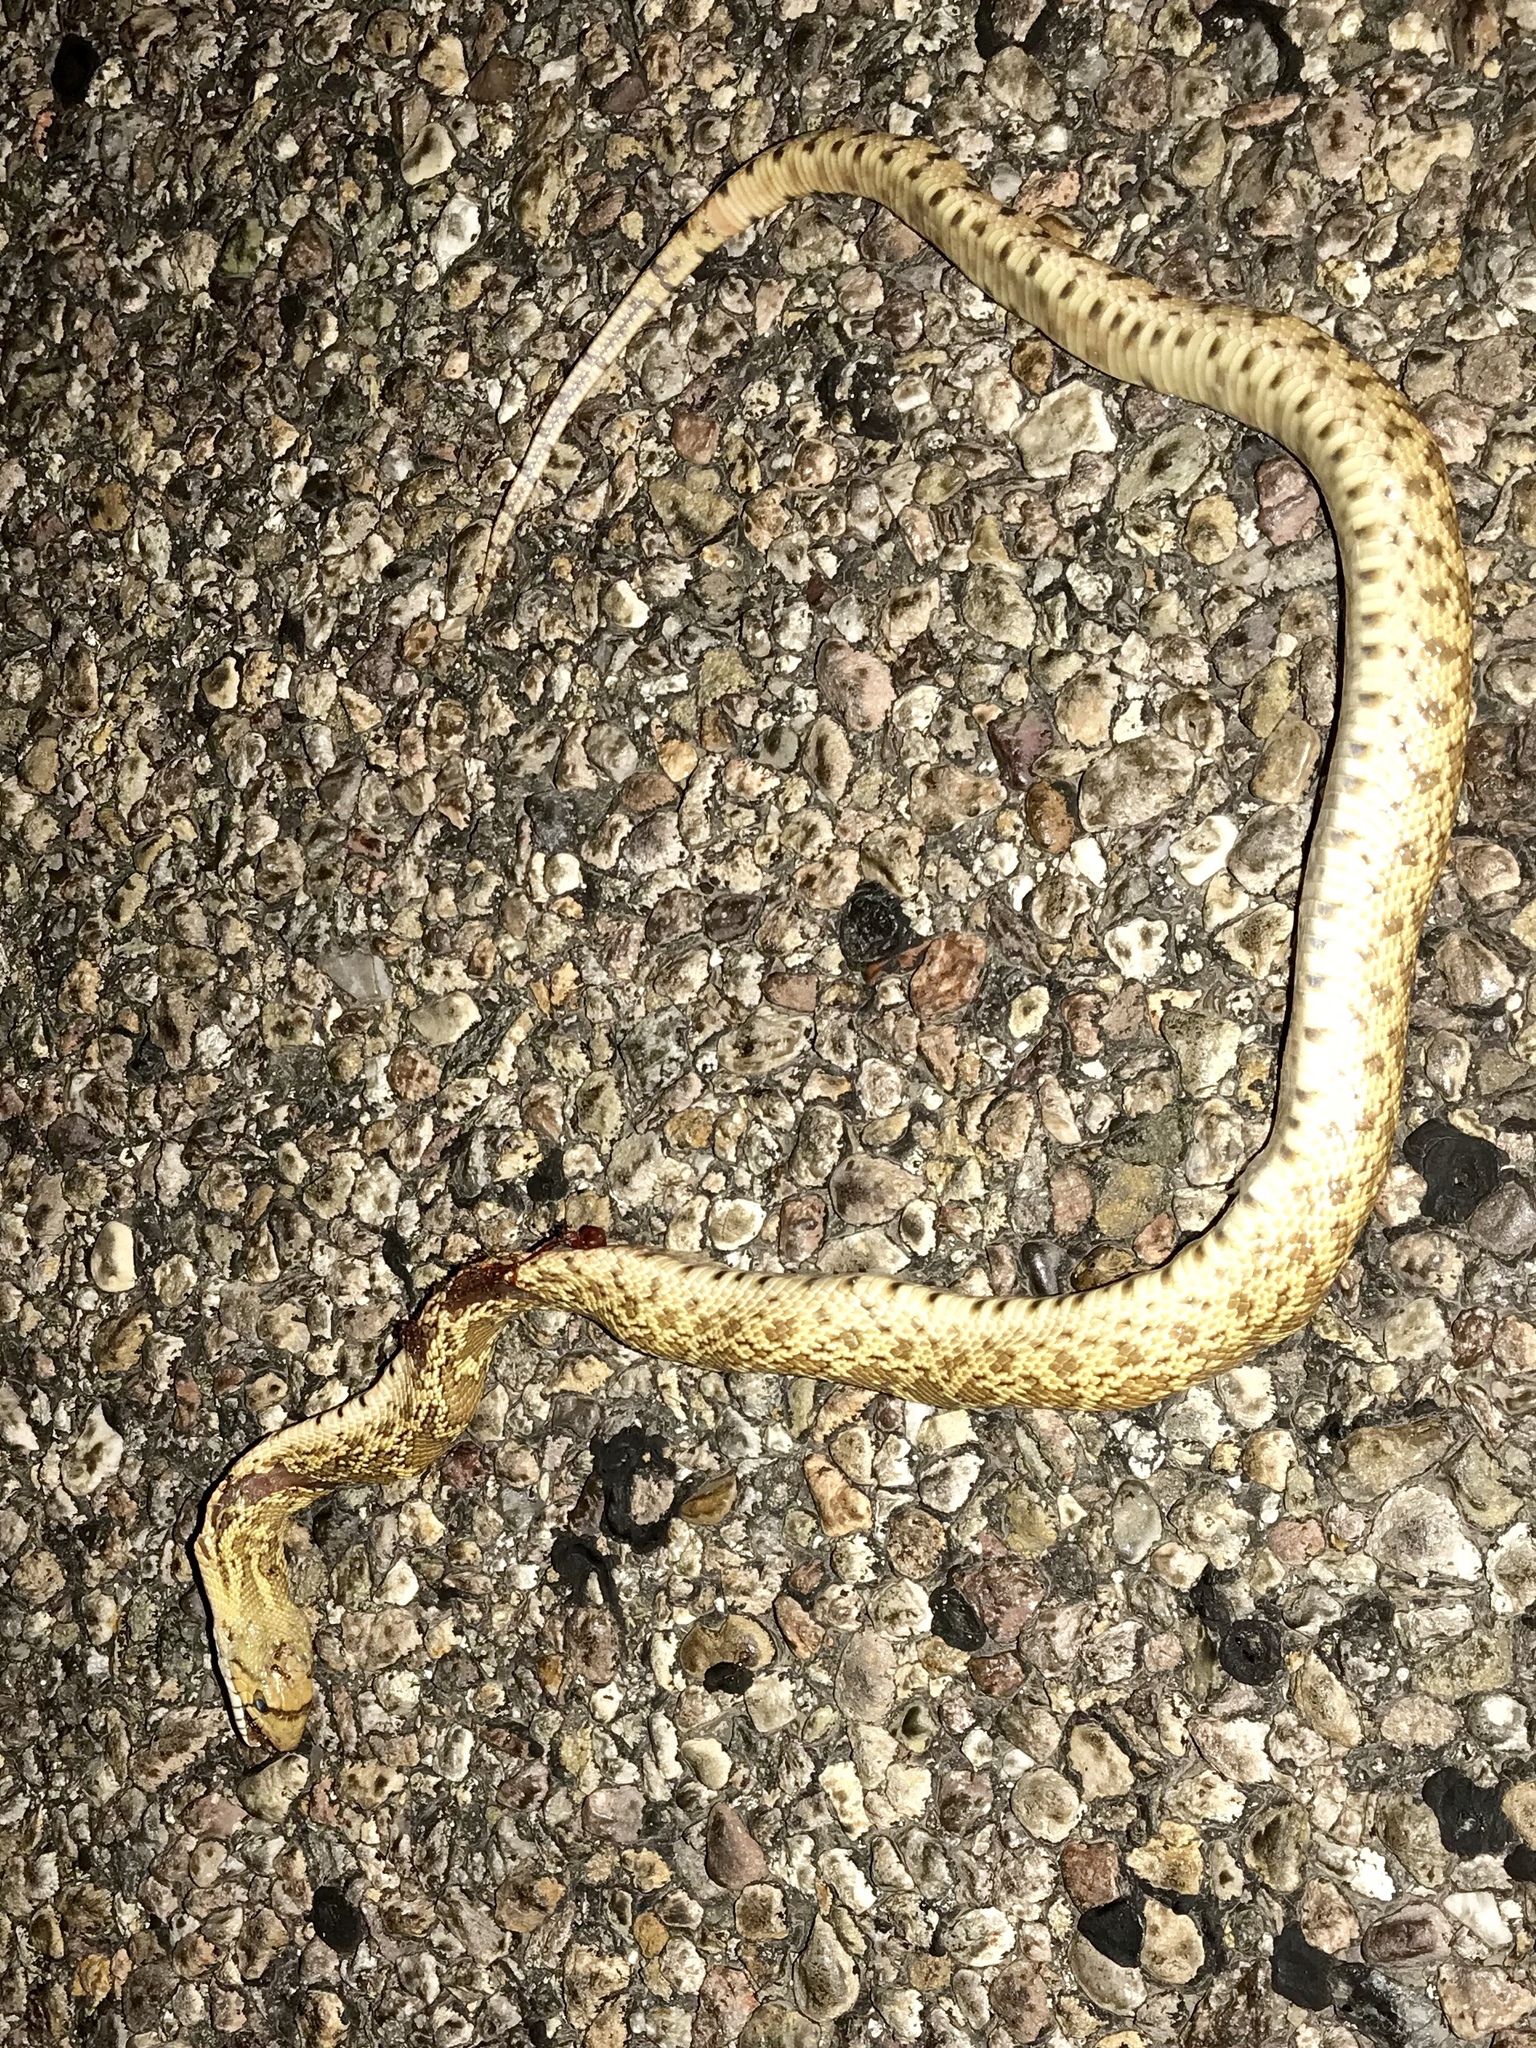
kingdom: Animalia
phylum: Chordata
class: Squamata
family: Colubridae
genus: Pituophis
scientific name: Pituophis catenifer
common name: Gopher snake
